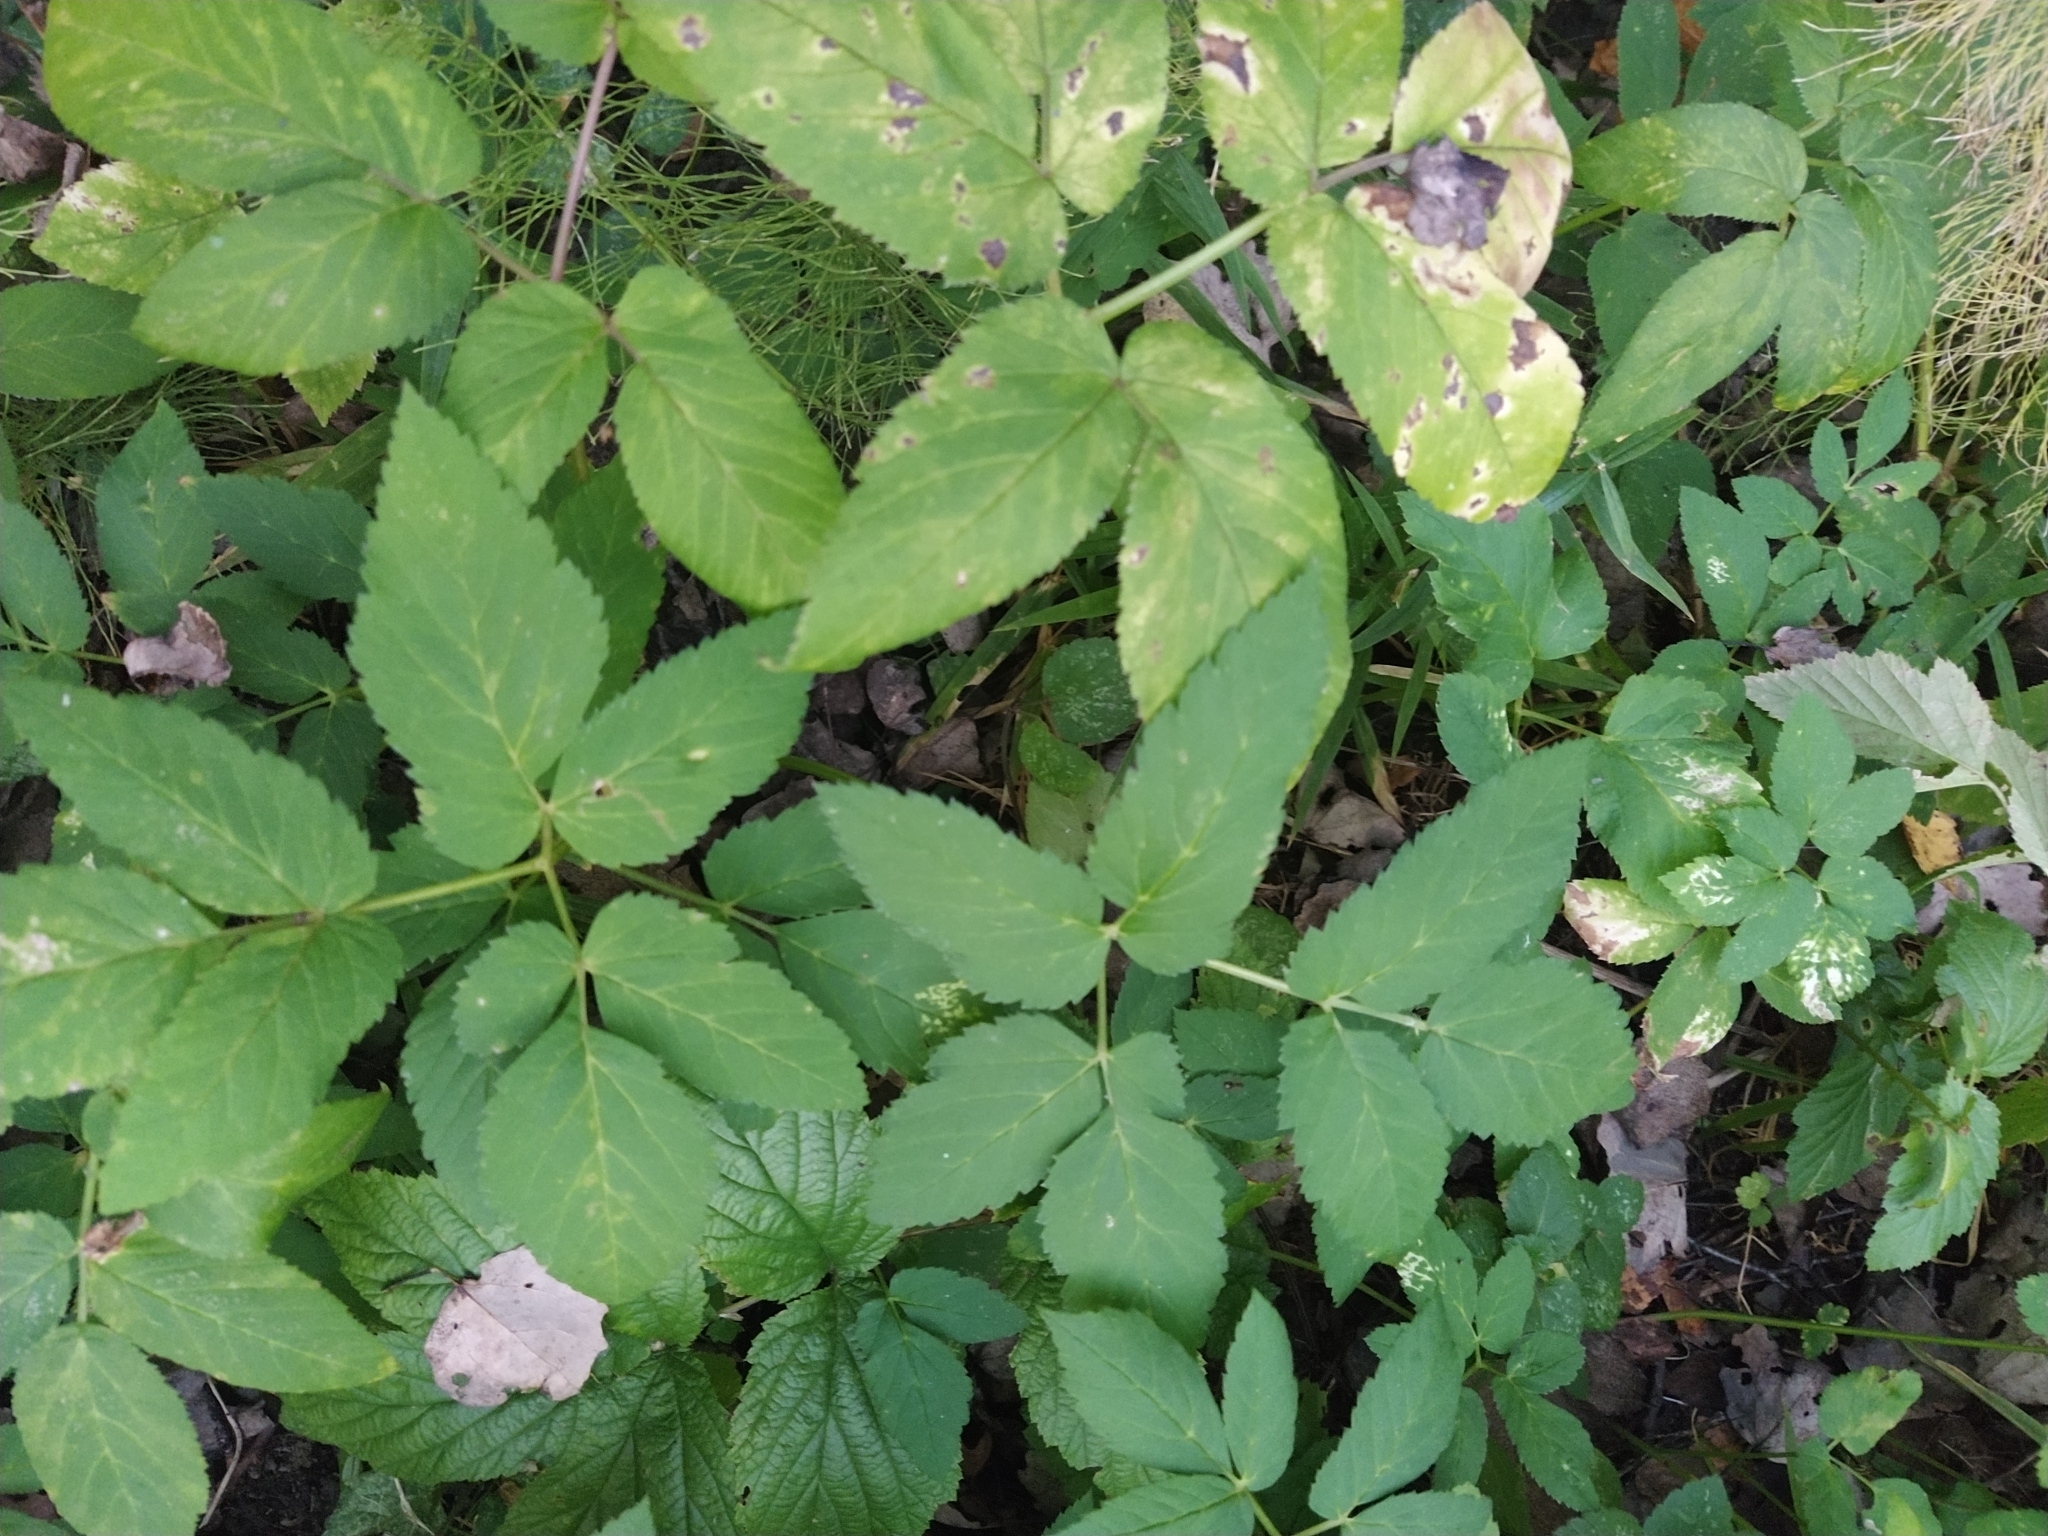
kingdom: Plantae
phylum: Tracheophyta
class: Magnoliopsida
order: Apiales
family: Apiaceae
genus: Aegopodium
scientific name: Aegopodium podagraria
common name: Ground-elder
